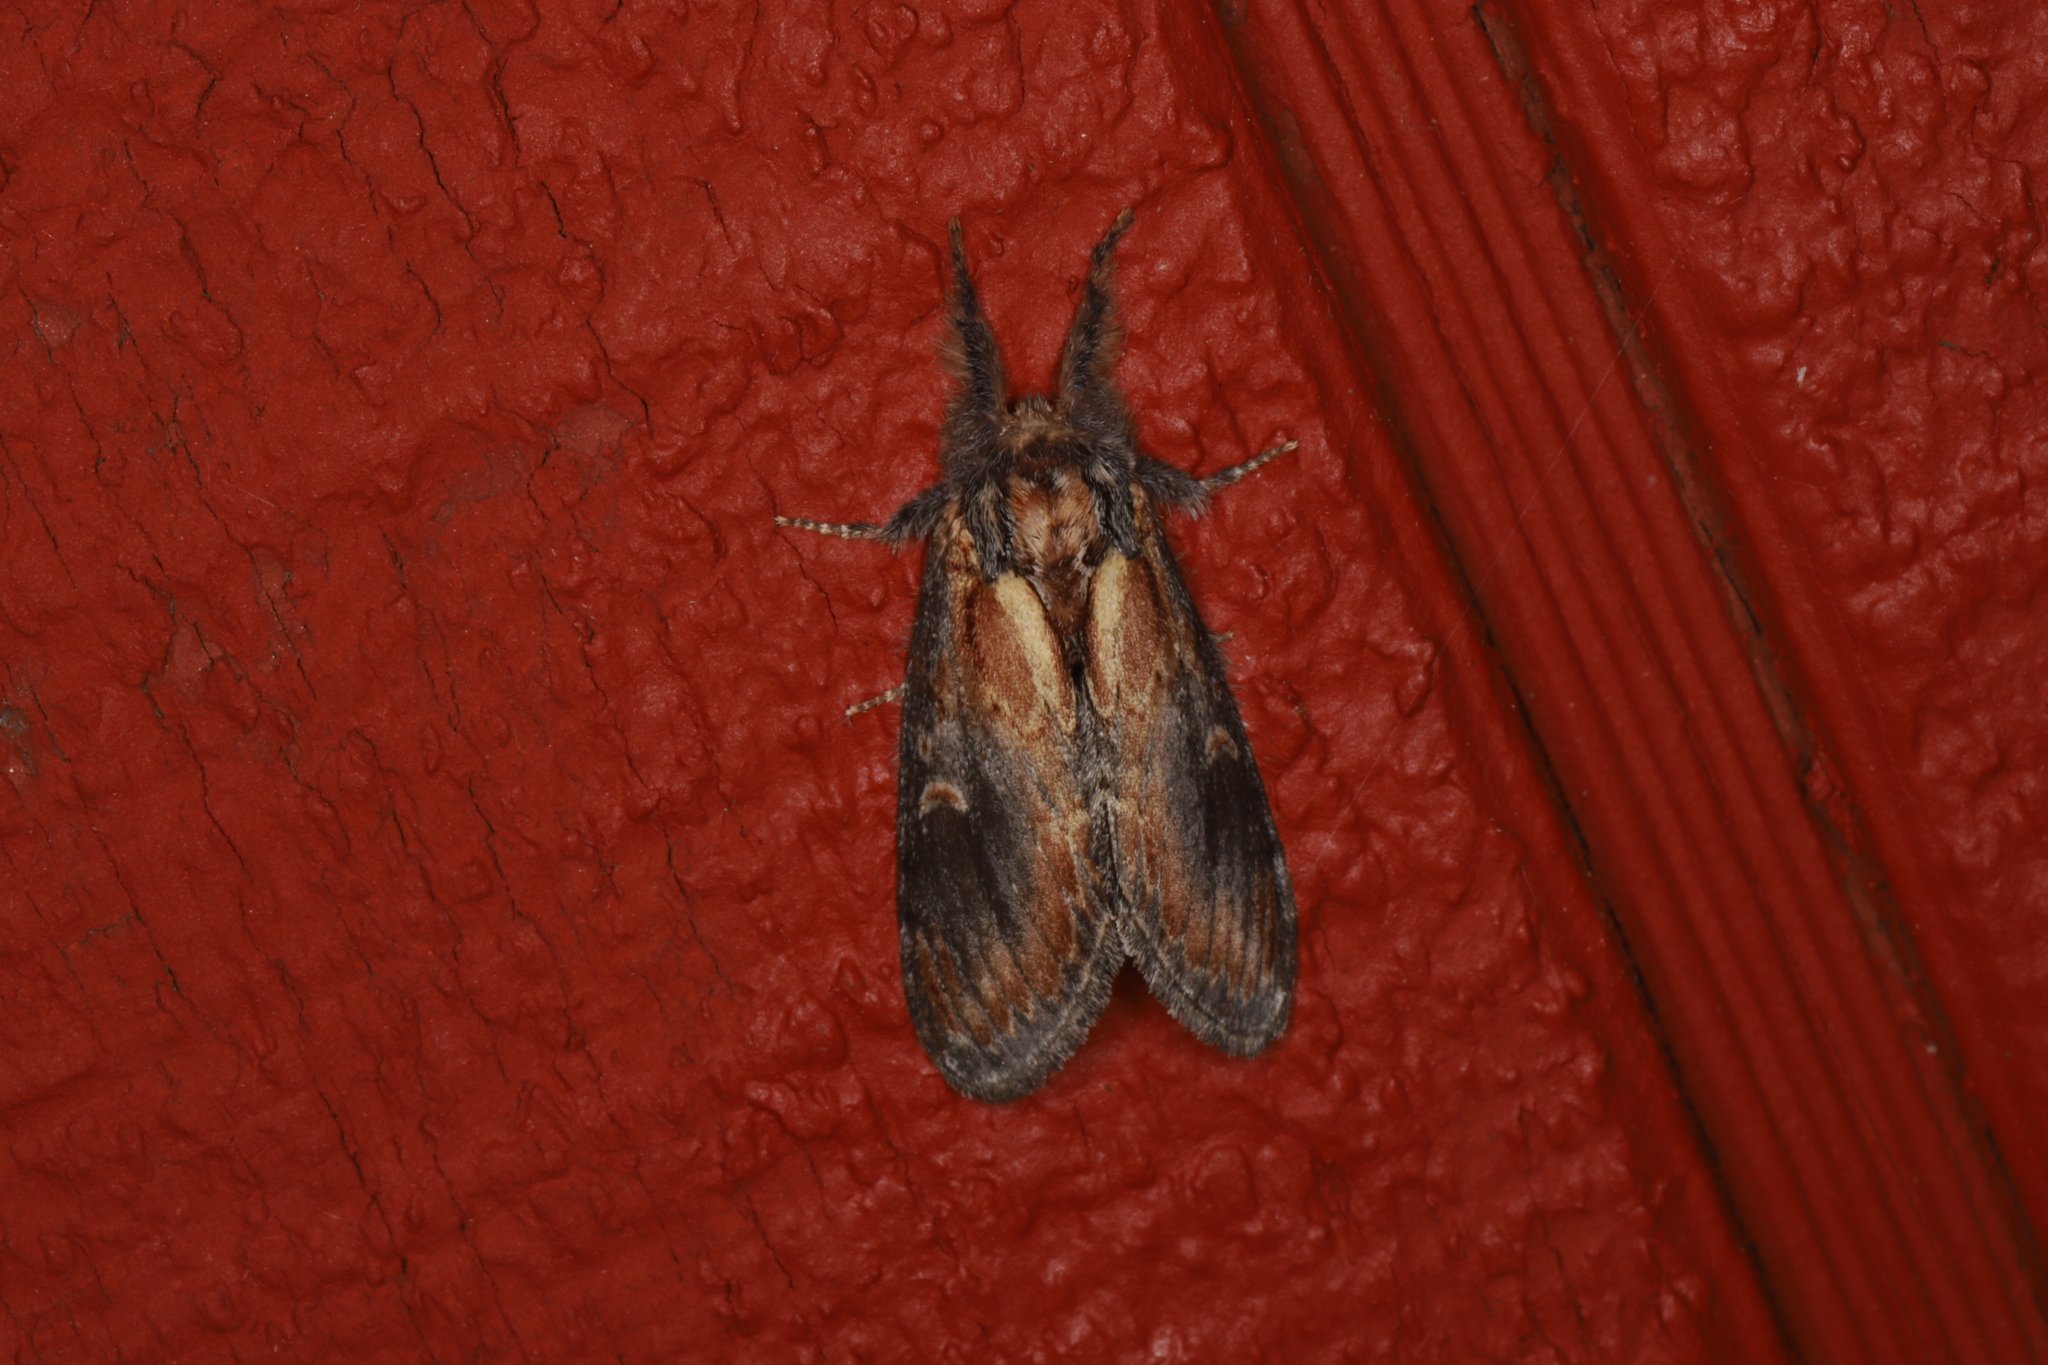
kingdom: Animalia
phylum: Arthropoda
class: Insecta
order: Lepidoptera
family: Notodontidae
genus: Notodonta
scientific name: Notodonta scitipennis
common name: Finned-willow prominent moth
